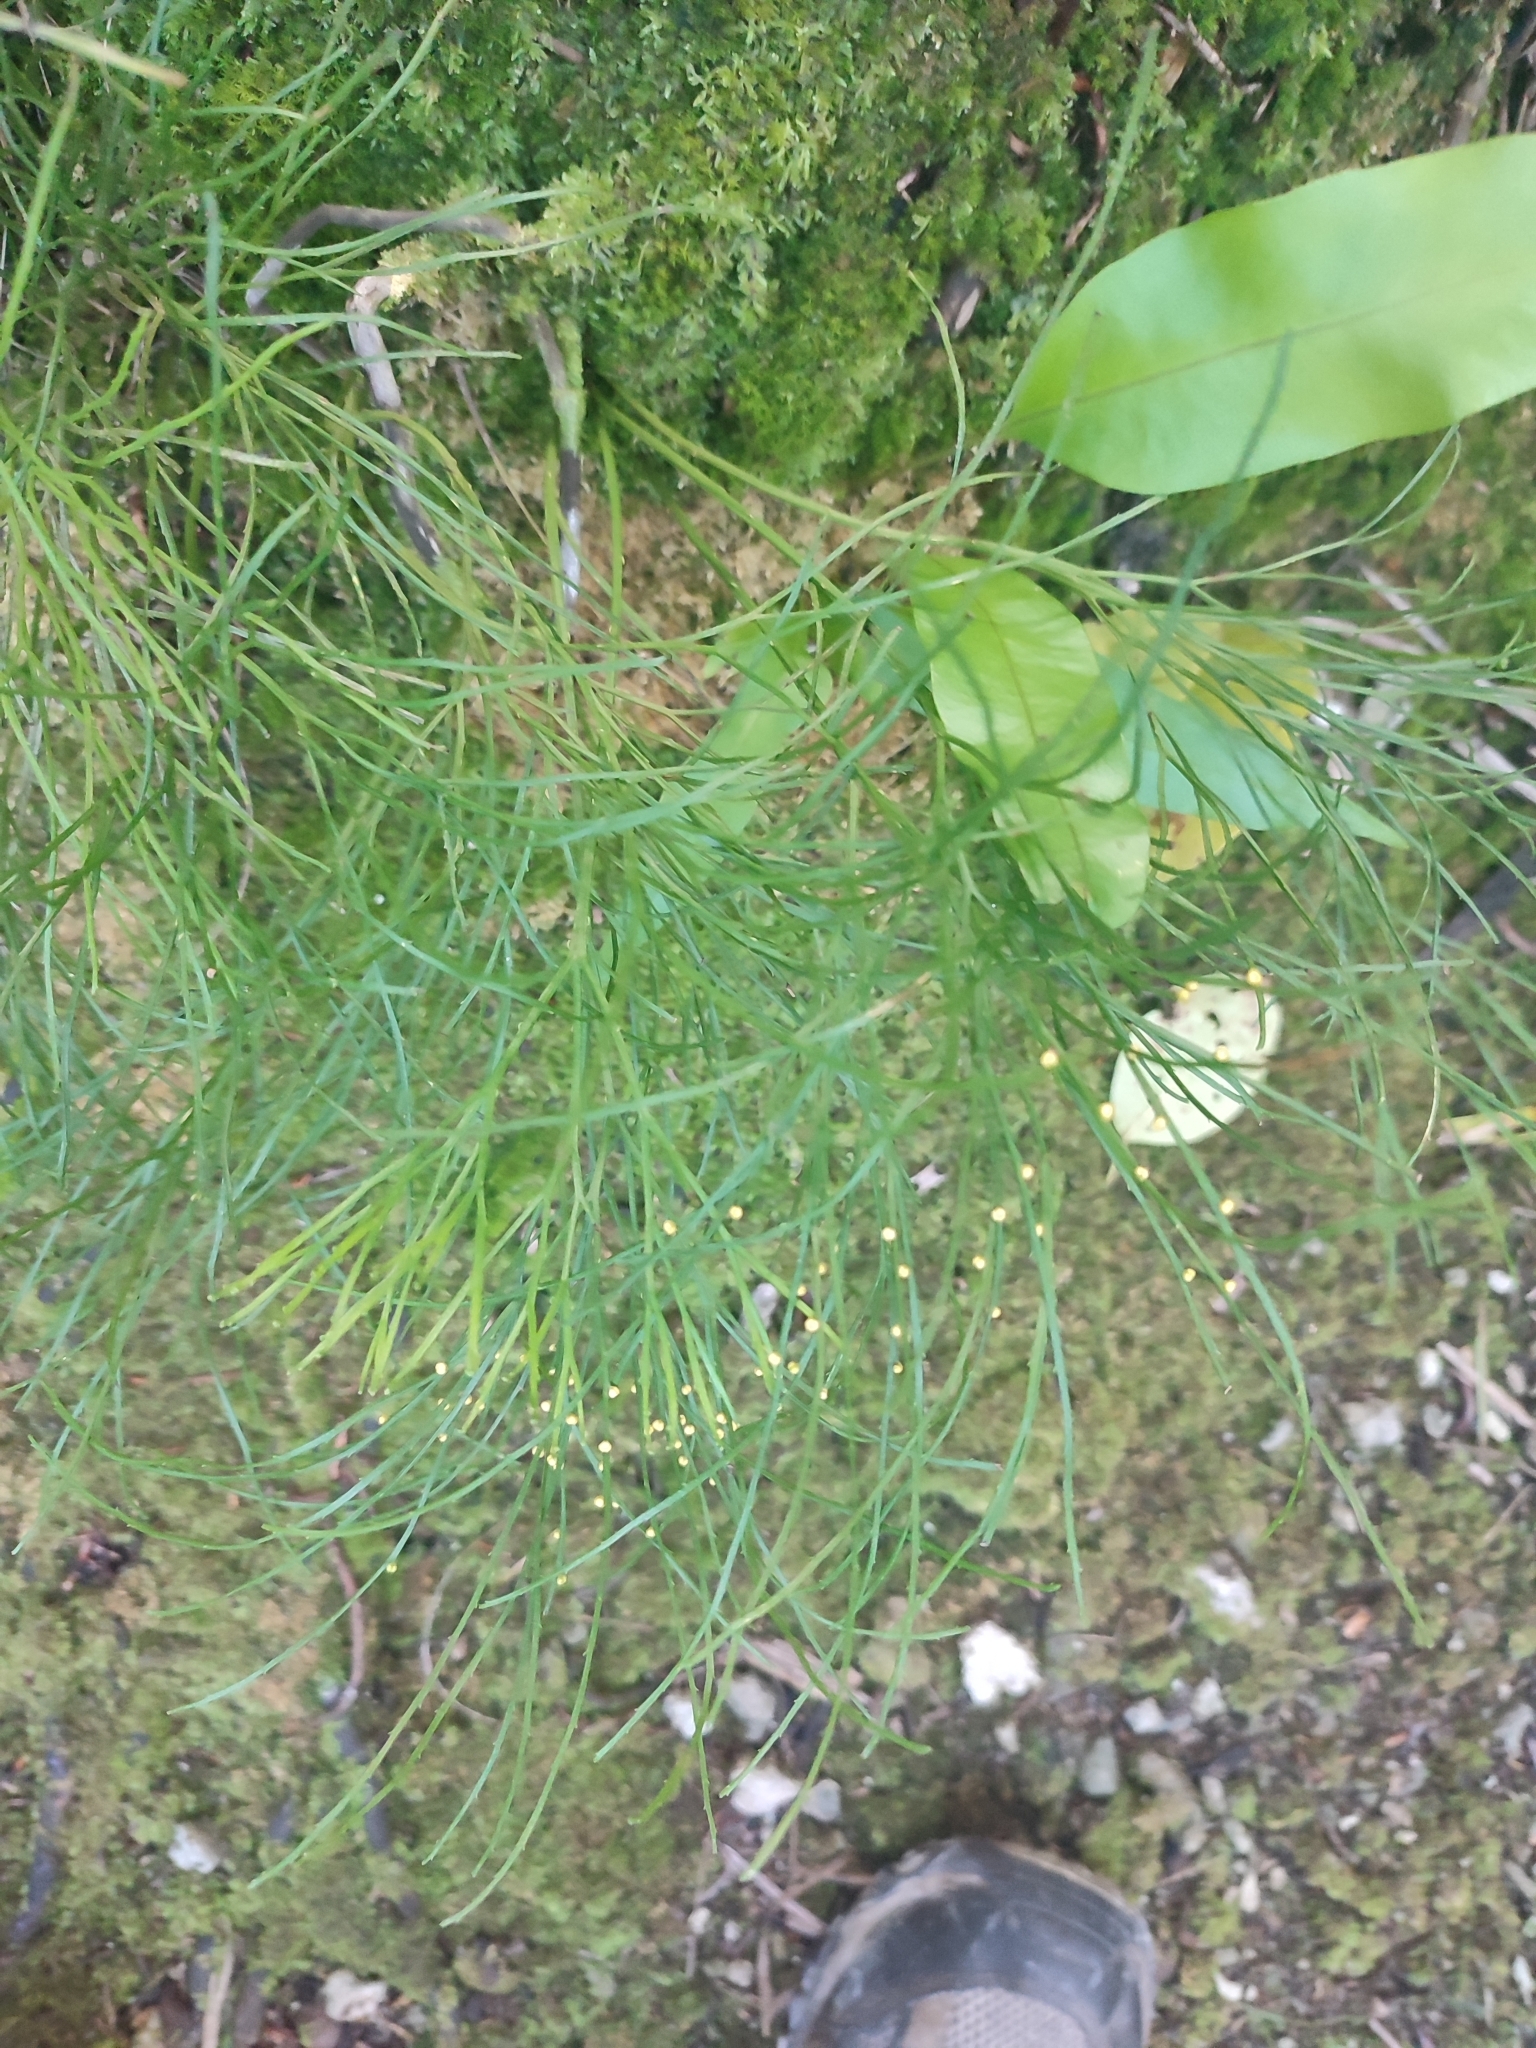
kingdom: Plantae
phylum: Tracheophyta
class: Polypodiopsida
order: Psilotales
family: Psilotaceae
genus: Psilotum
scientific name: Psilotum nudum
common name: Skeleton fork fern
